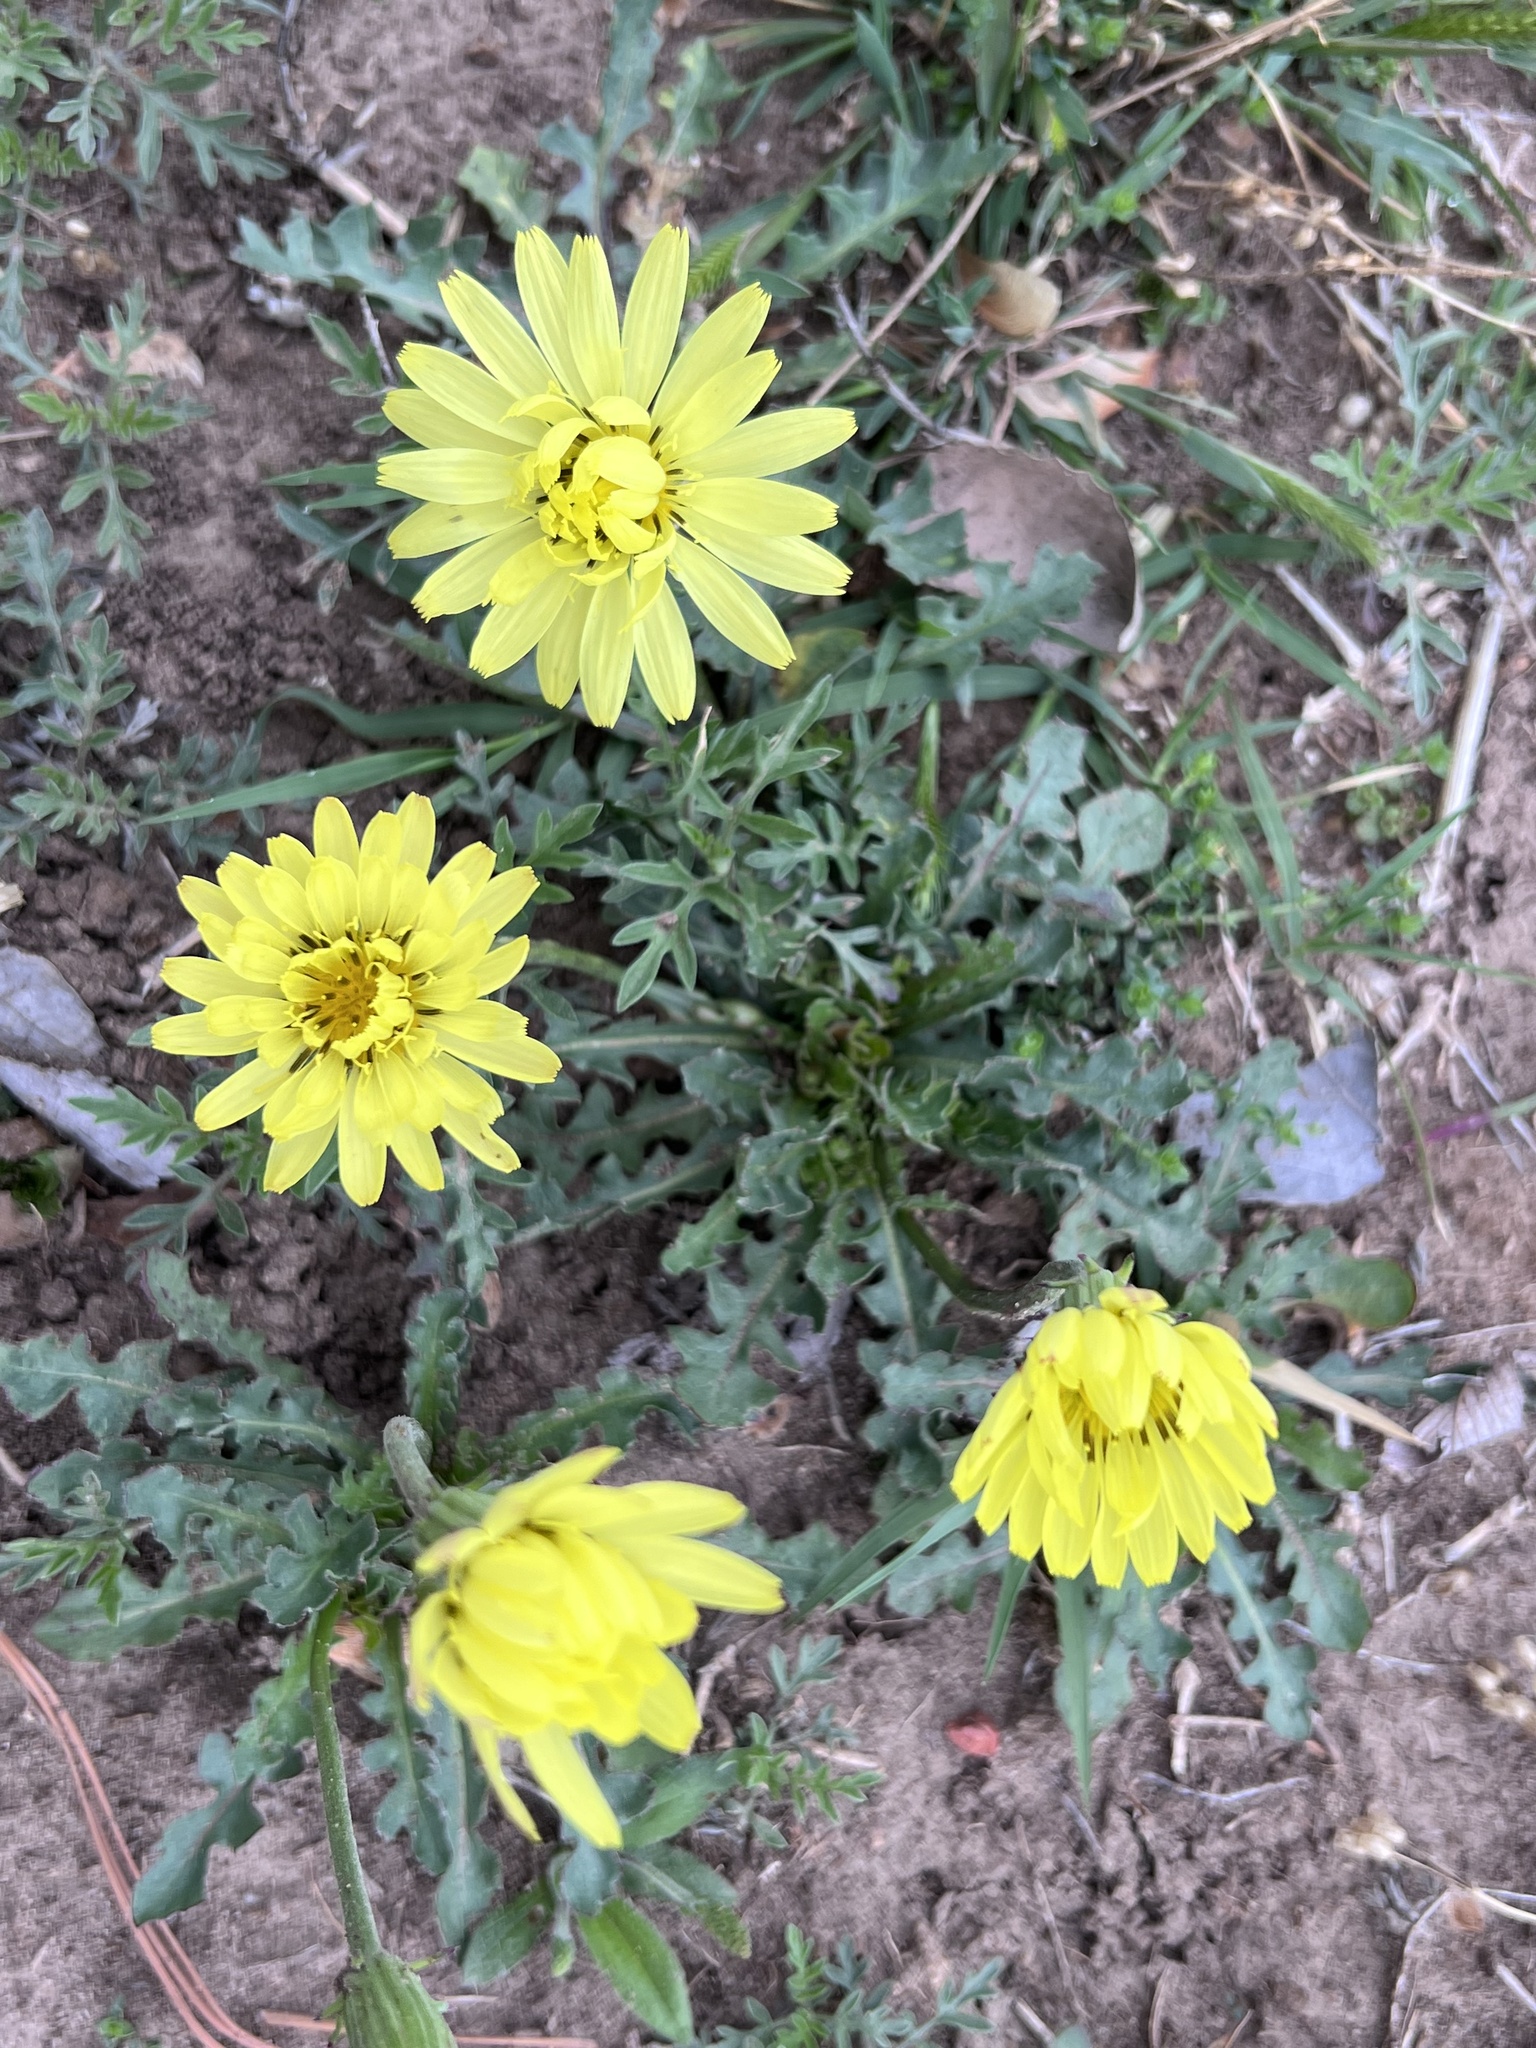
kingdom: Plantae
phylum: Tracheophyta
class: Magnoliopsida
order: Asterales
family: Asteraceae
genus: Pyrrhopappus
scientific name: Pyrrhopappus pauciflorus
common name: Texas false dandelion
